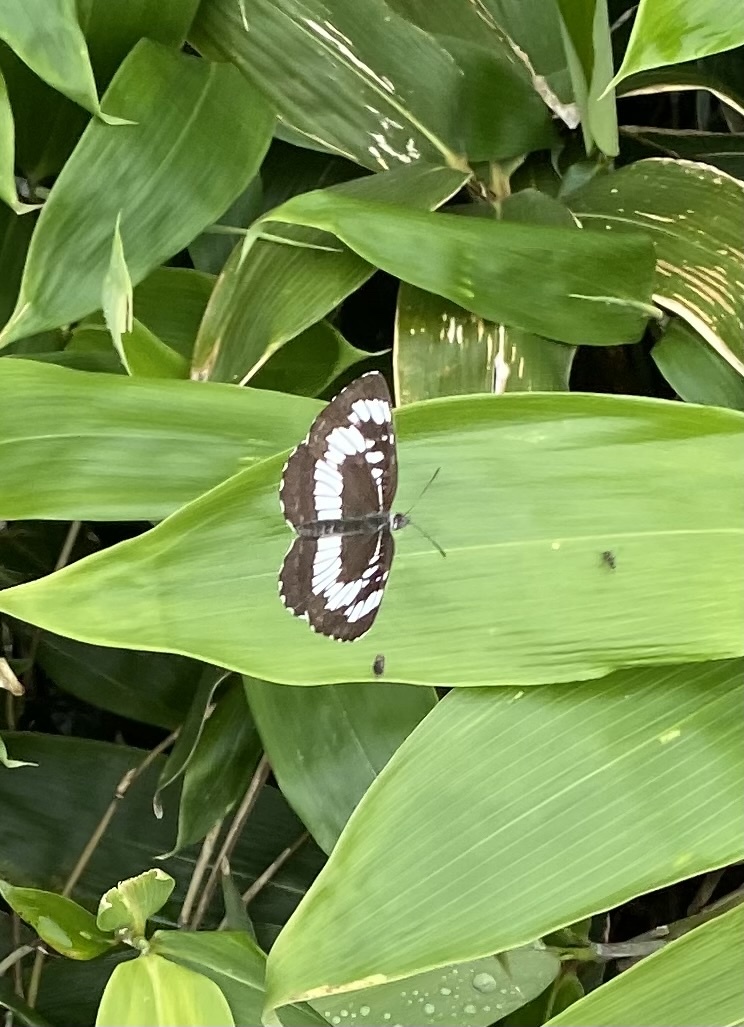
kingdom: Animalia
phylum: Arthropoda
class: Insecta
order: Lepidoptera
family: Nymphalidae
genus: Neptis
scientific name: Neptis rivularis
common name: Hungarian glider
